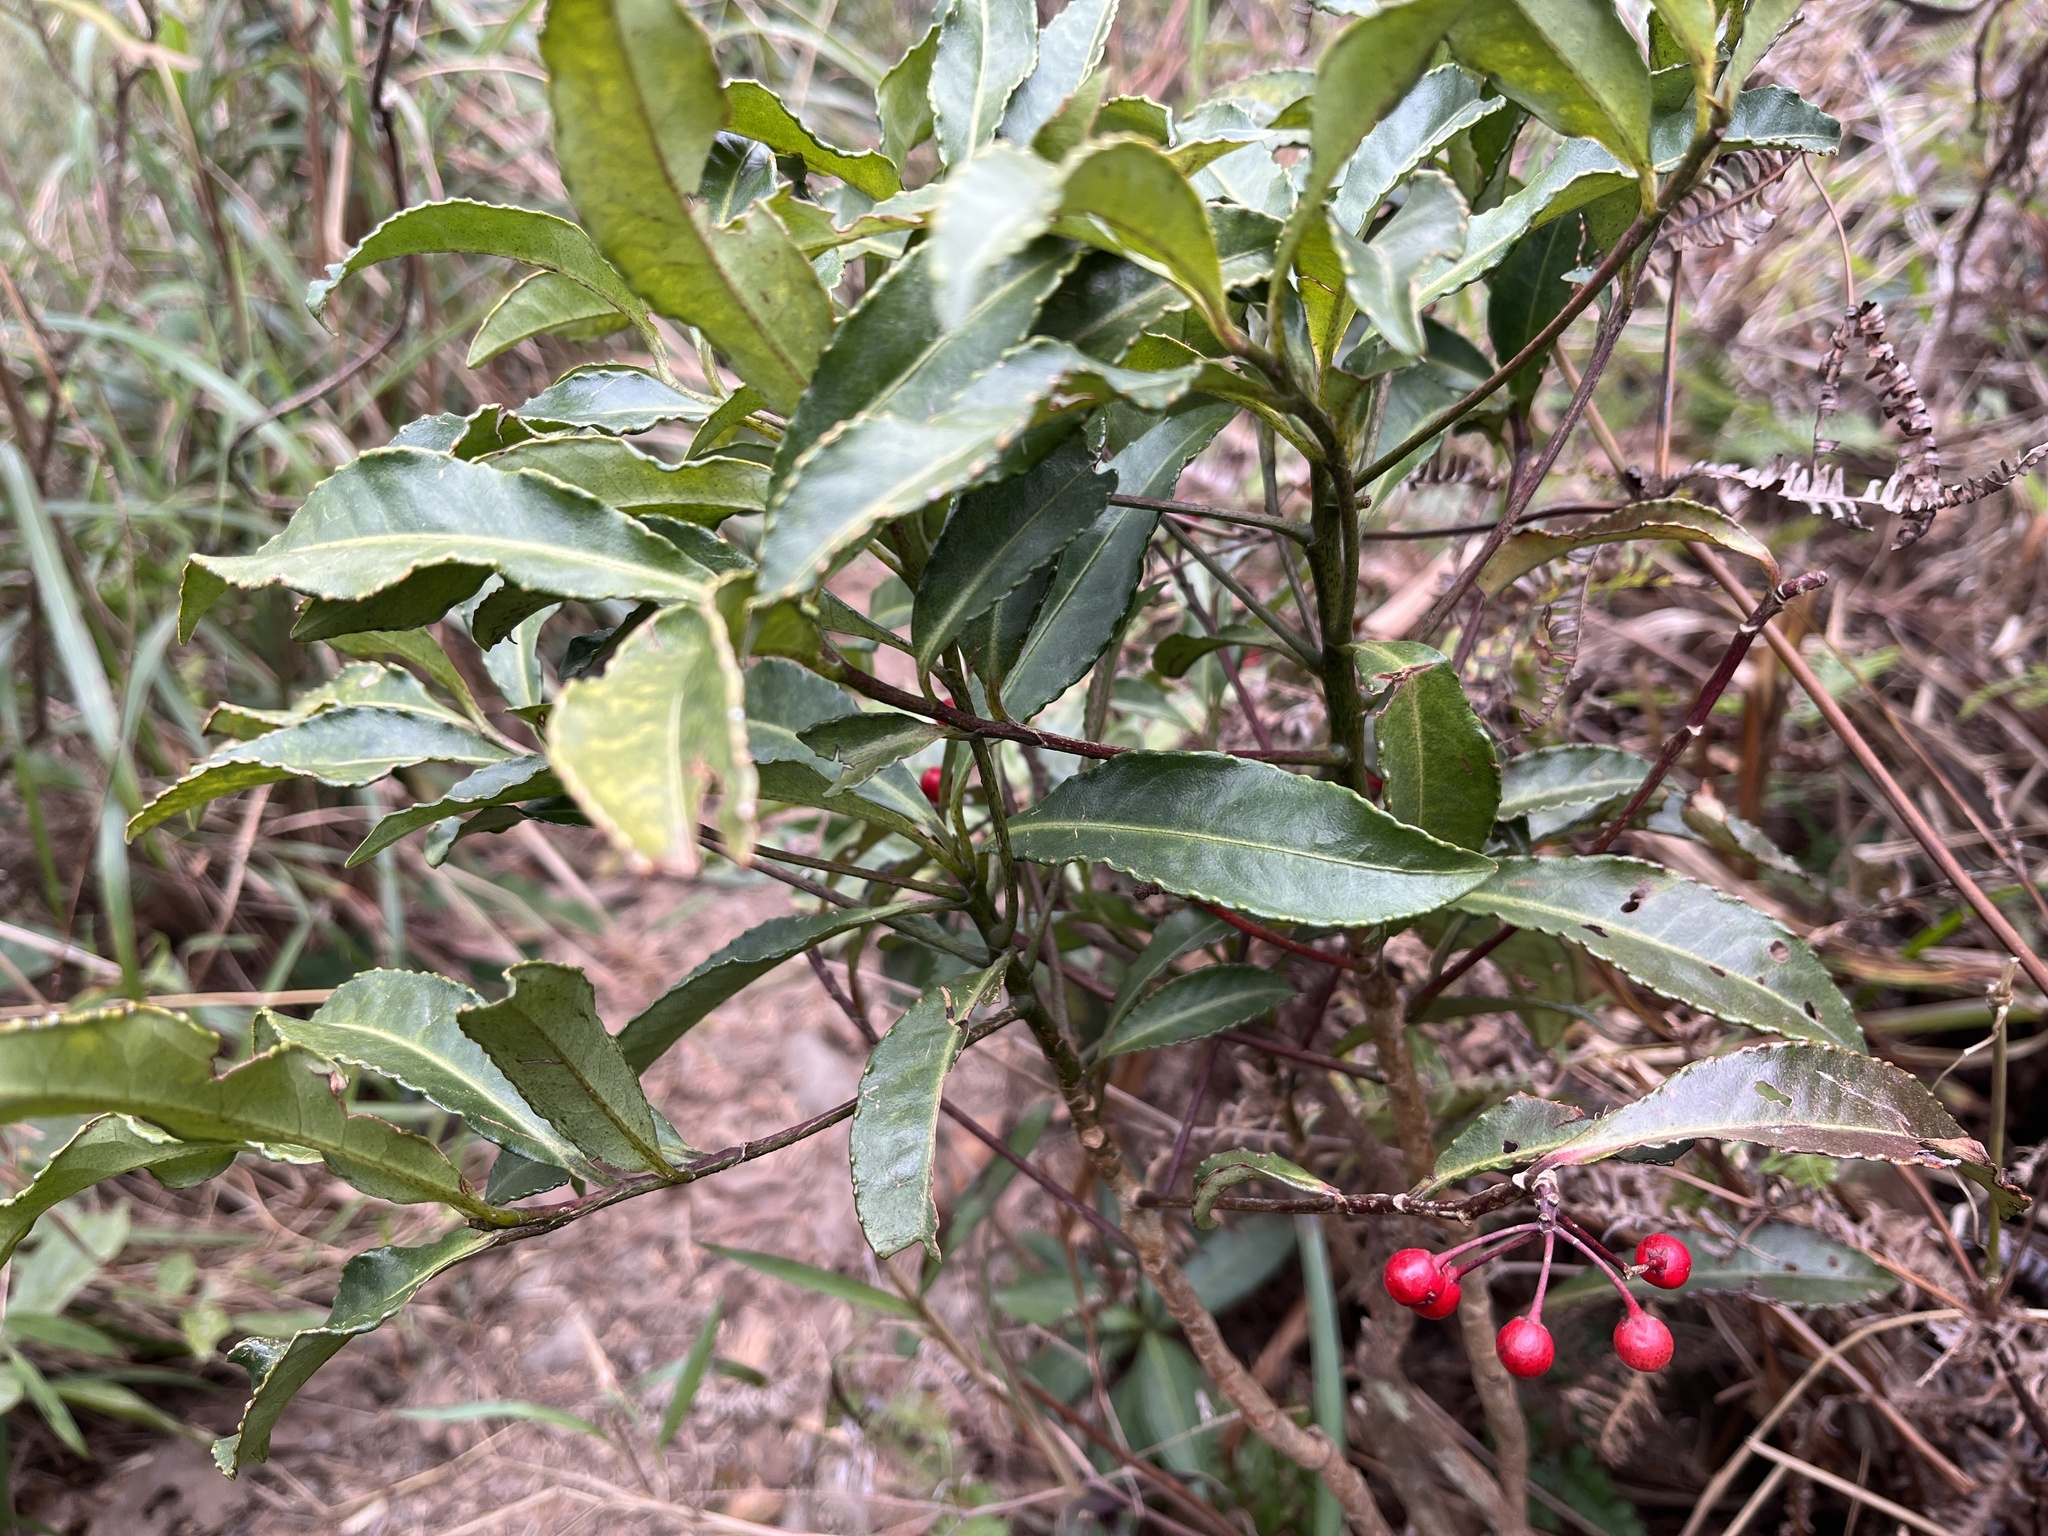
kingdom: Plantae
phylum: Tracheophyta
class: Magnoliopsida
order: Ericales
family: Primulaceae
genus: Ardisia
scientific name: Ardisia crenata
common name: Hen's eyes
